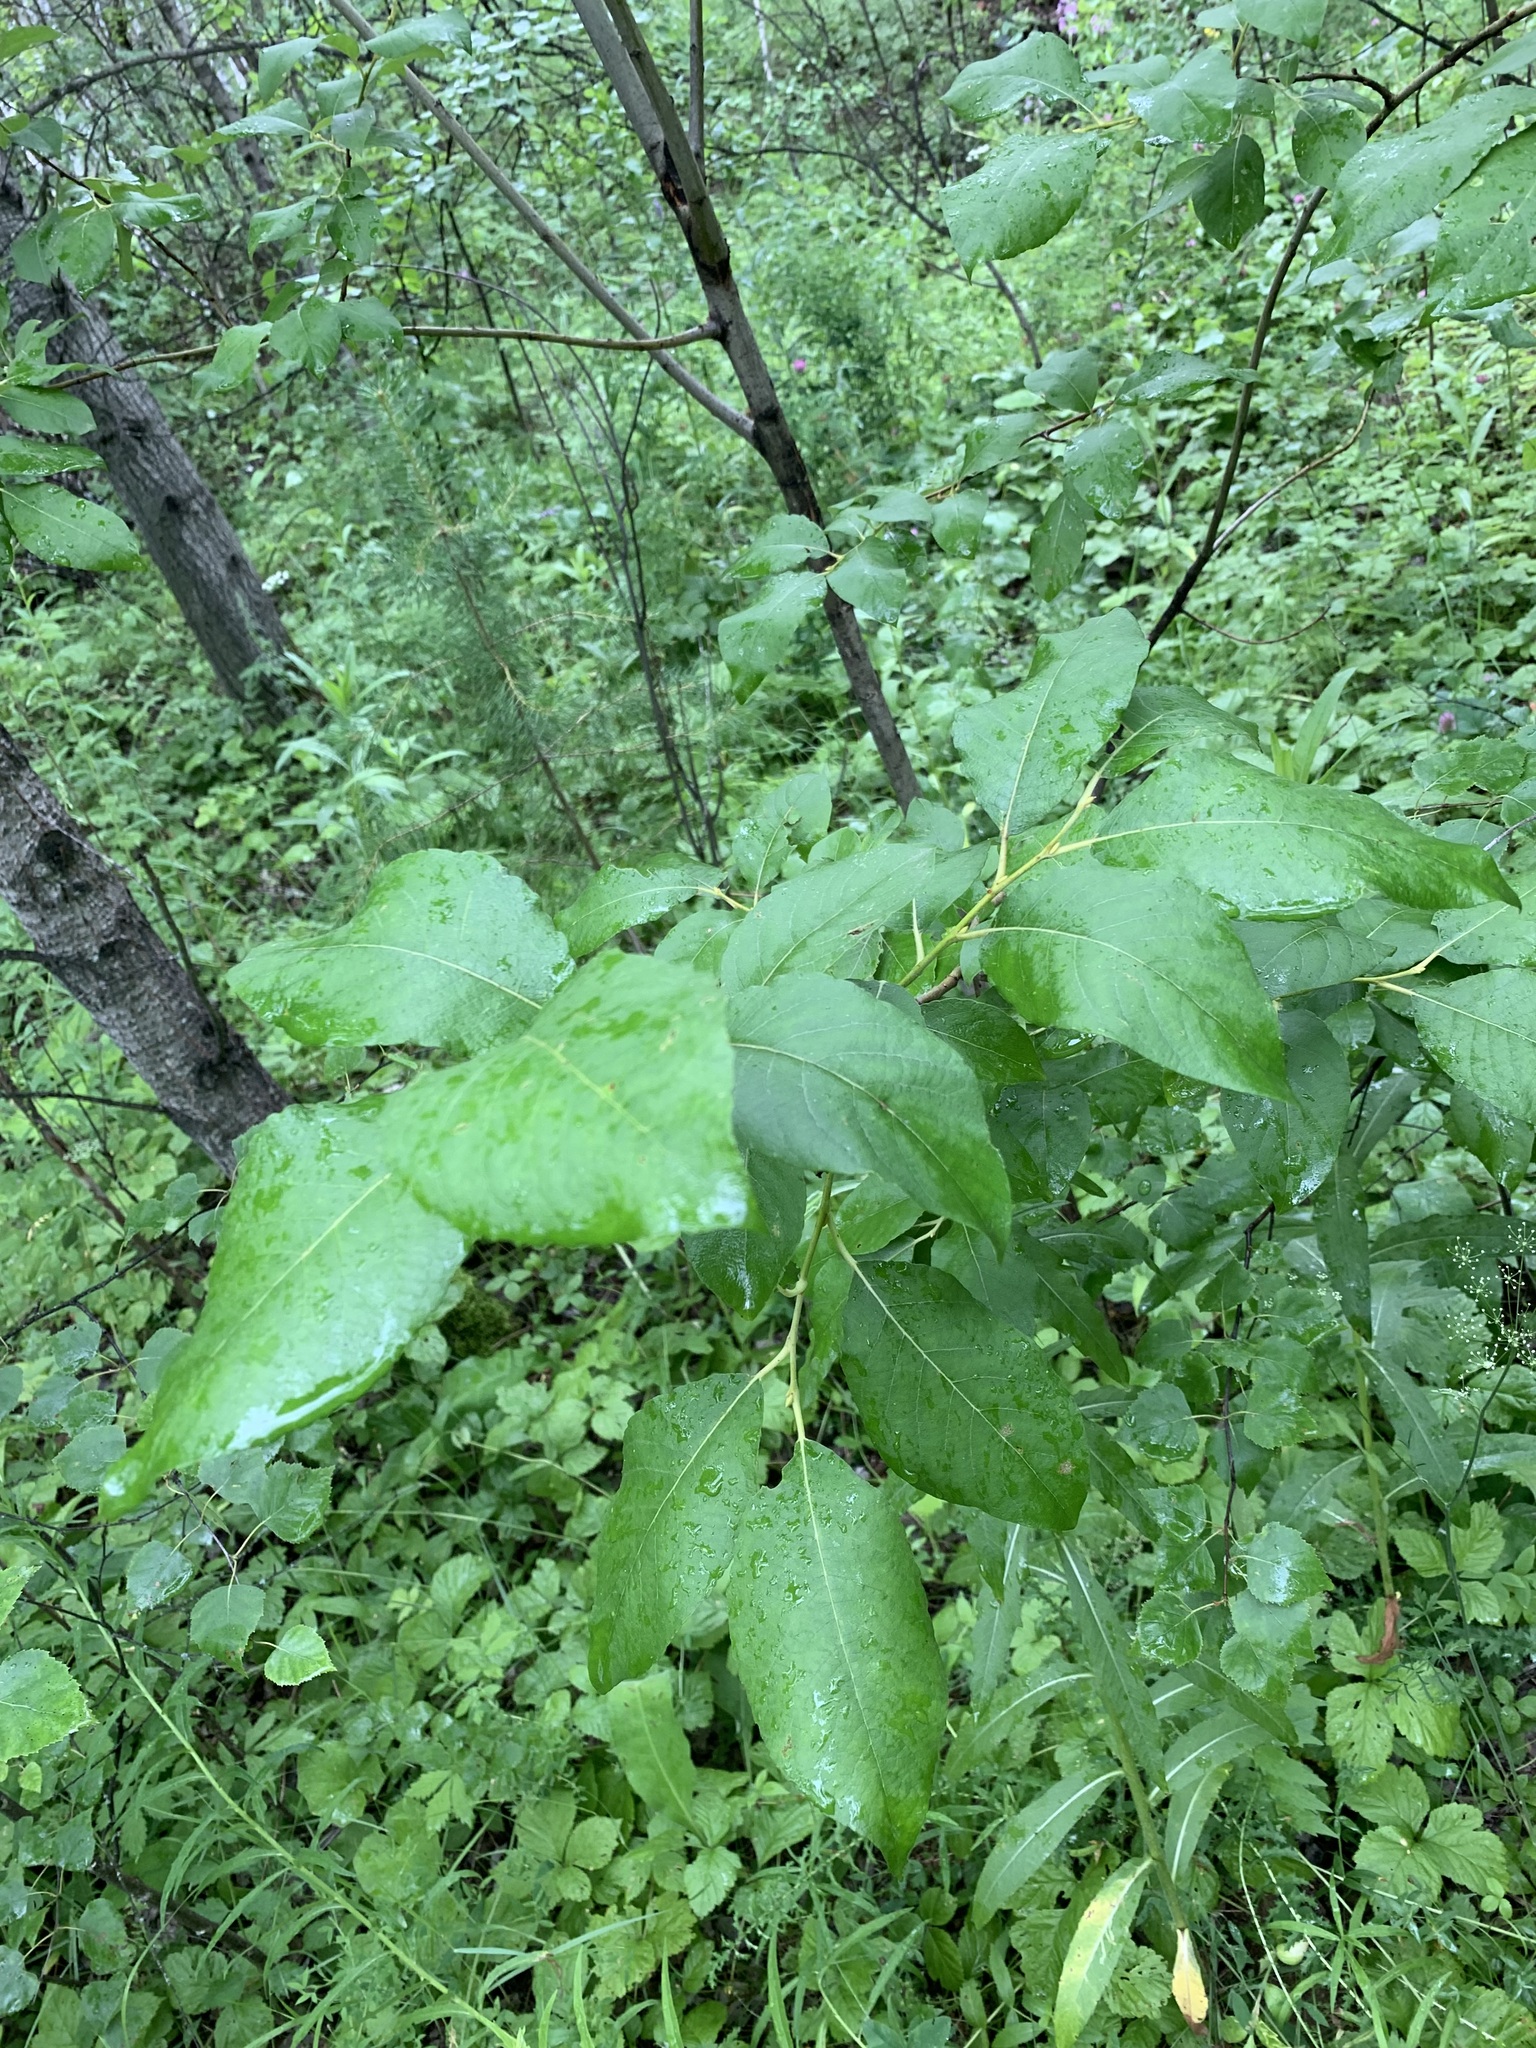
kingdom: Plantae
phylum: Tracheophyta
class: Magnoliopsida
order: Malpighiales
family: Salicaceae
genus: Salix
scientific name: Salix caprea
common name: Goat willow
